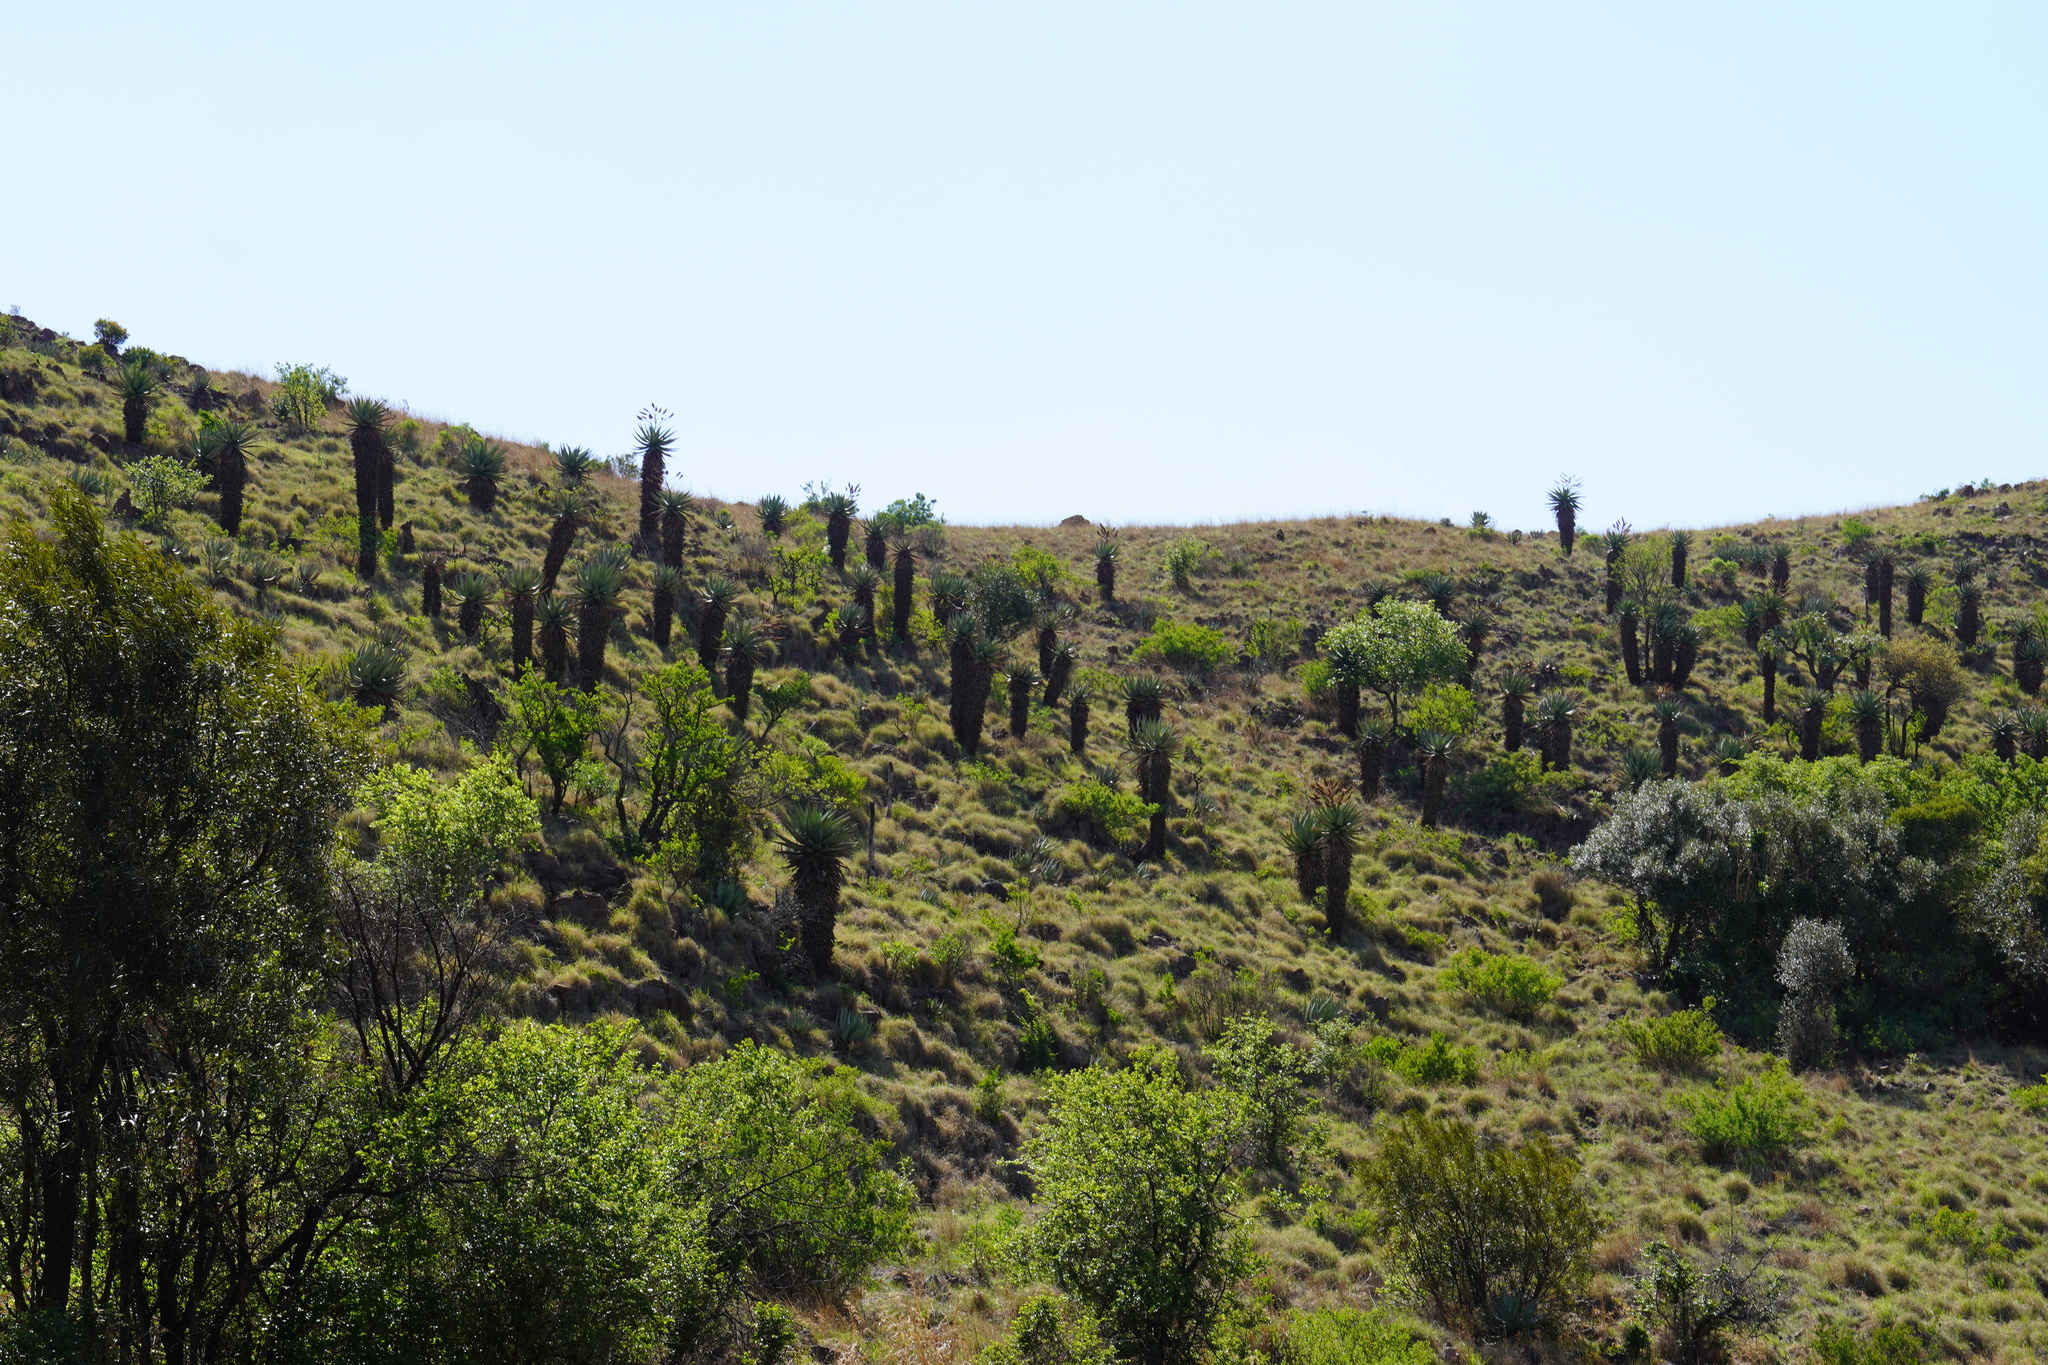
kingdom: Plantae
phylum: Tracheophyta
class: Liliopsida
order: Asparagales
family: Asphodelaceae
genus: Aloe
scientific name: Aloe marlothii
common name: Flat-flowered aloe
